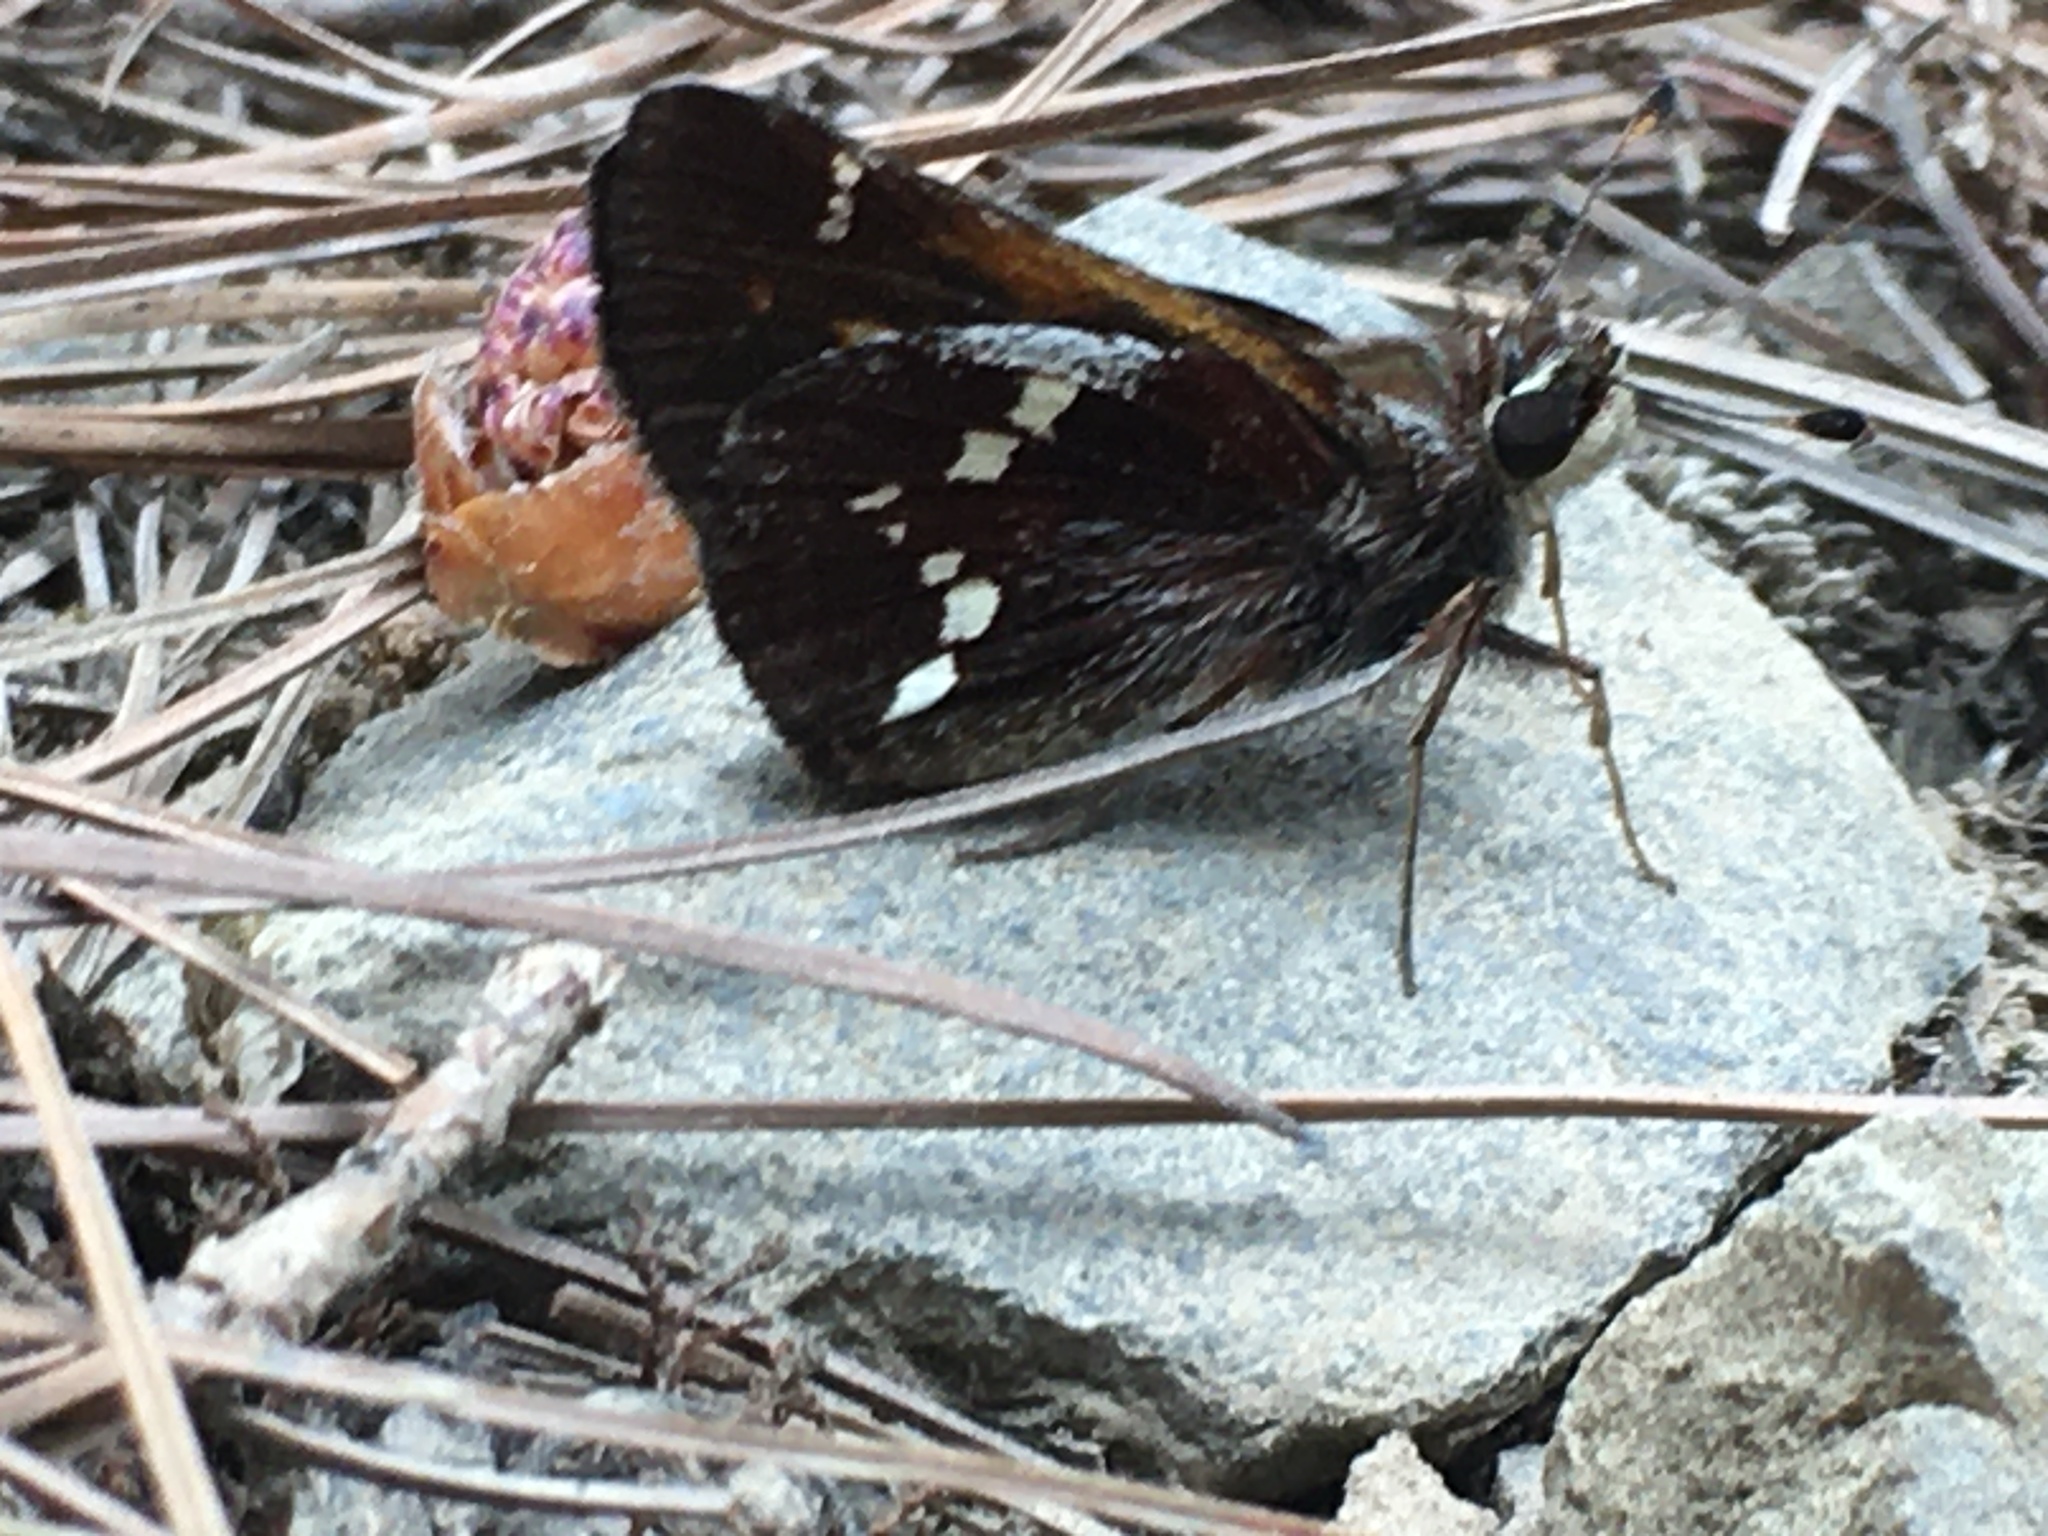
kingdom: Animalia
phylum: Arthropoda
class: Insecta
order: Lepidoptera
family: Hesperiidae
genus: Lon
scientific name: Lon monticola
